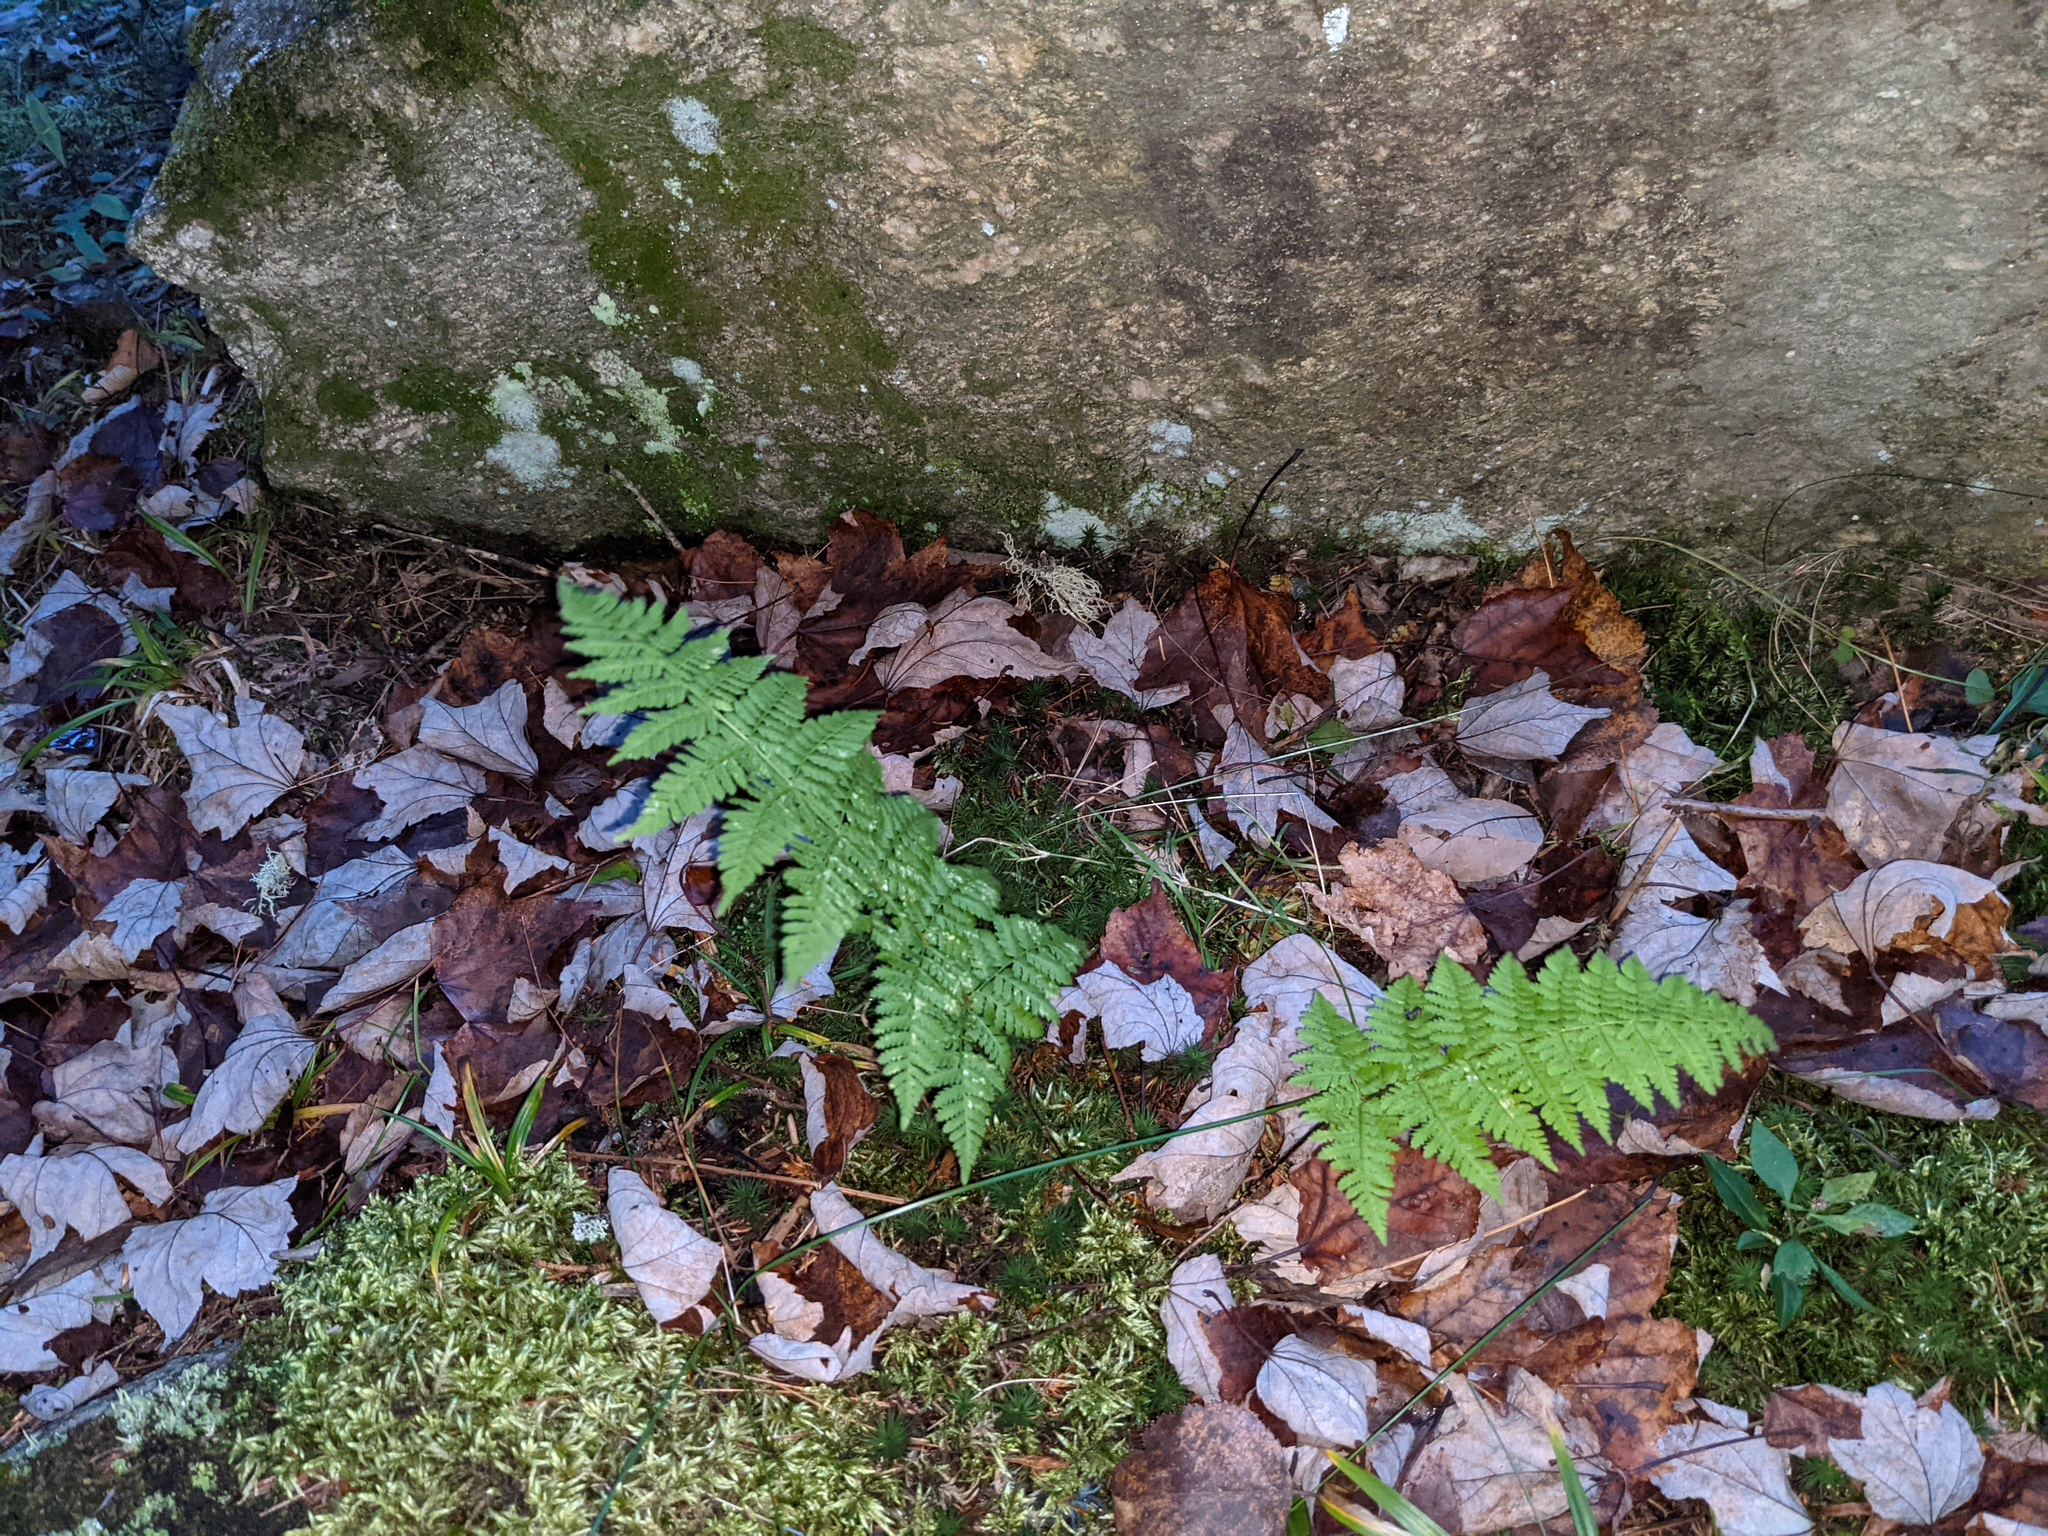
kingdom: Plantae
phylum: Tracheophyta
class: Polypodiopsida
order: Polypodiales
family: Dryopteridaceae
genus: Dryopteris
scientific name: Dryopteris intermedia
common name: Evergreen wood fern
